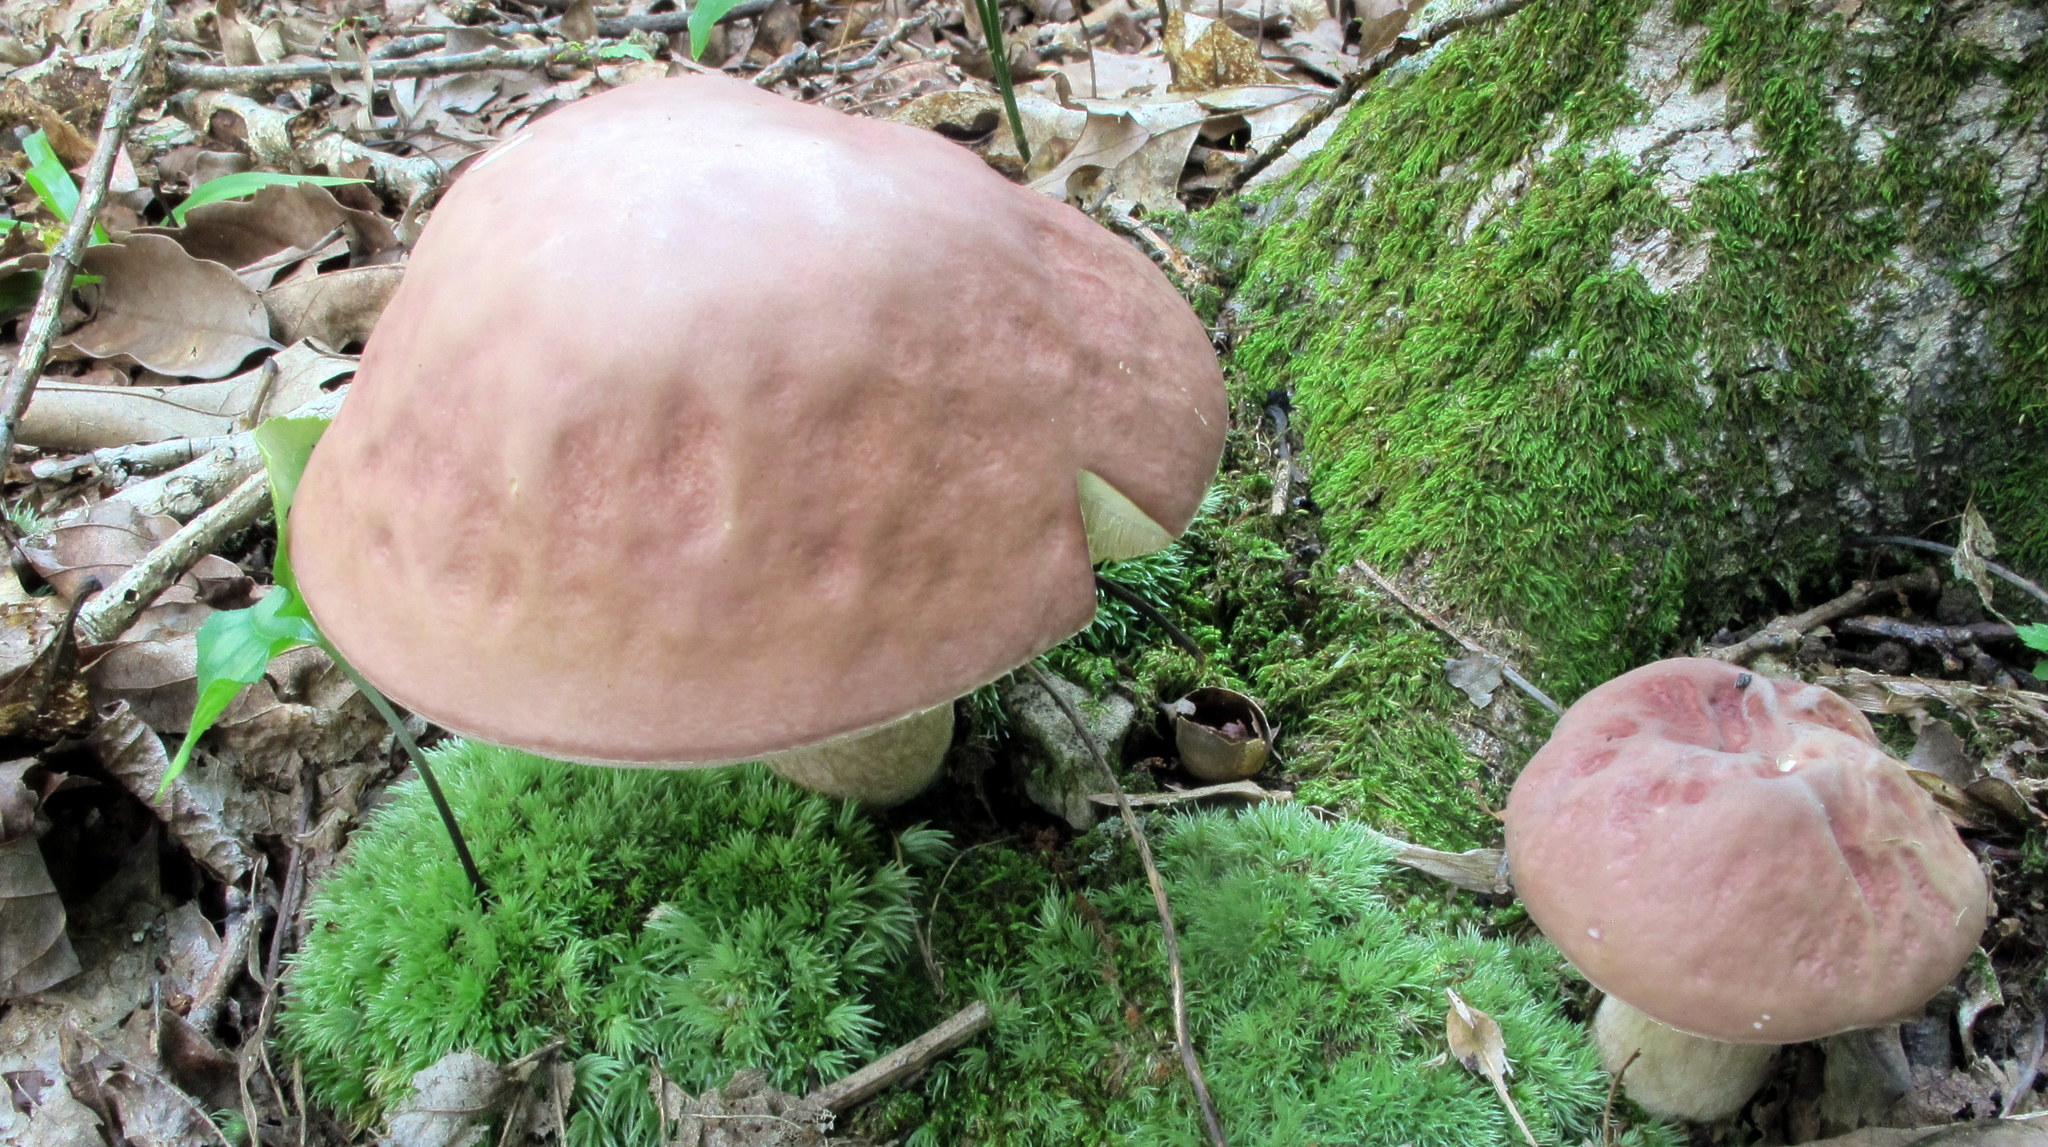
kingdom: Fungi
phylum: Basidiomycota
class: Agaricomycetes
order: Boletales
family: Boletaceae
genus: Xanthoconium
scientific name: Xanthoconium separans
